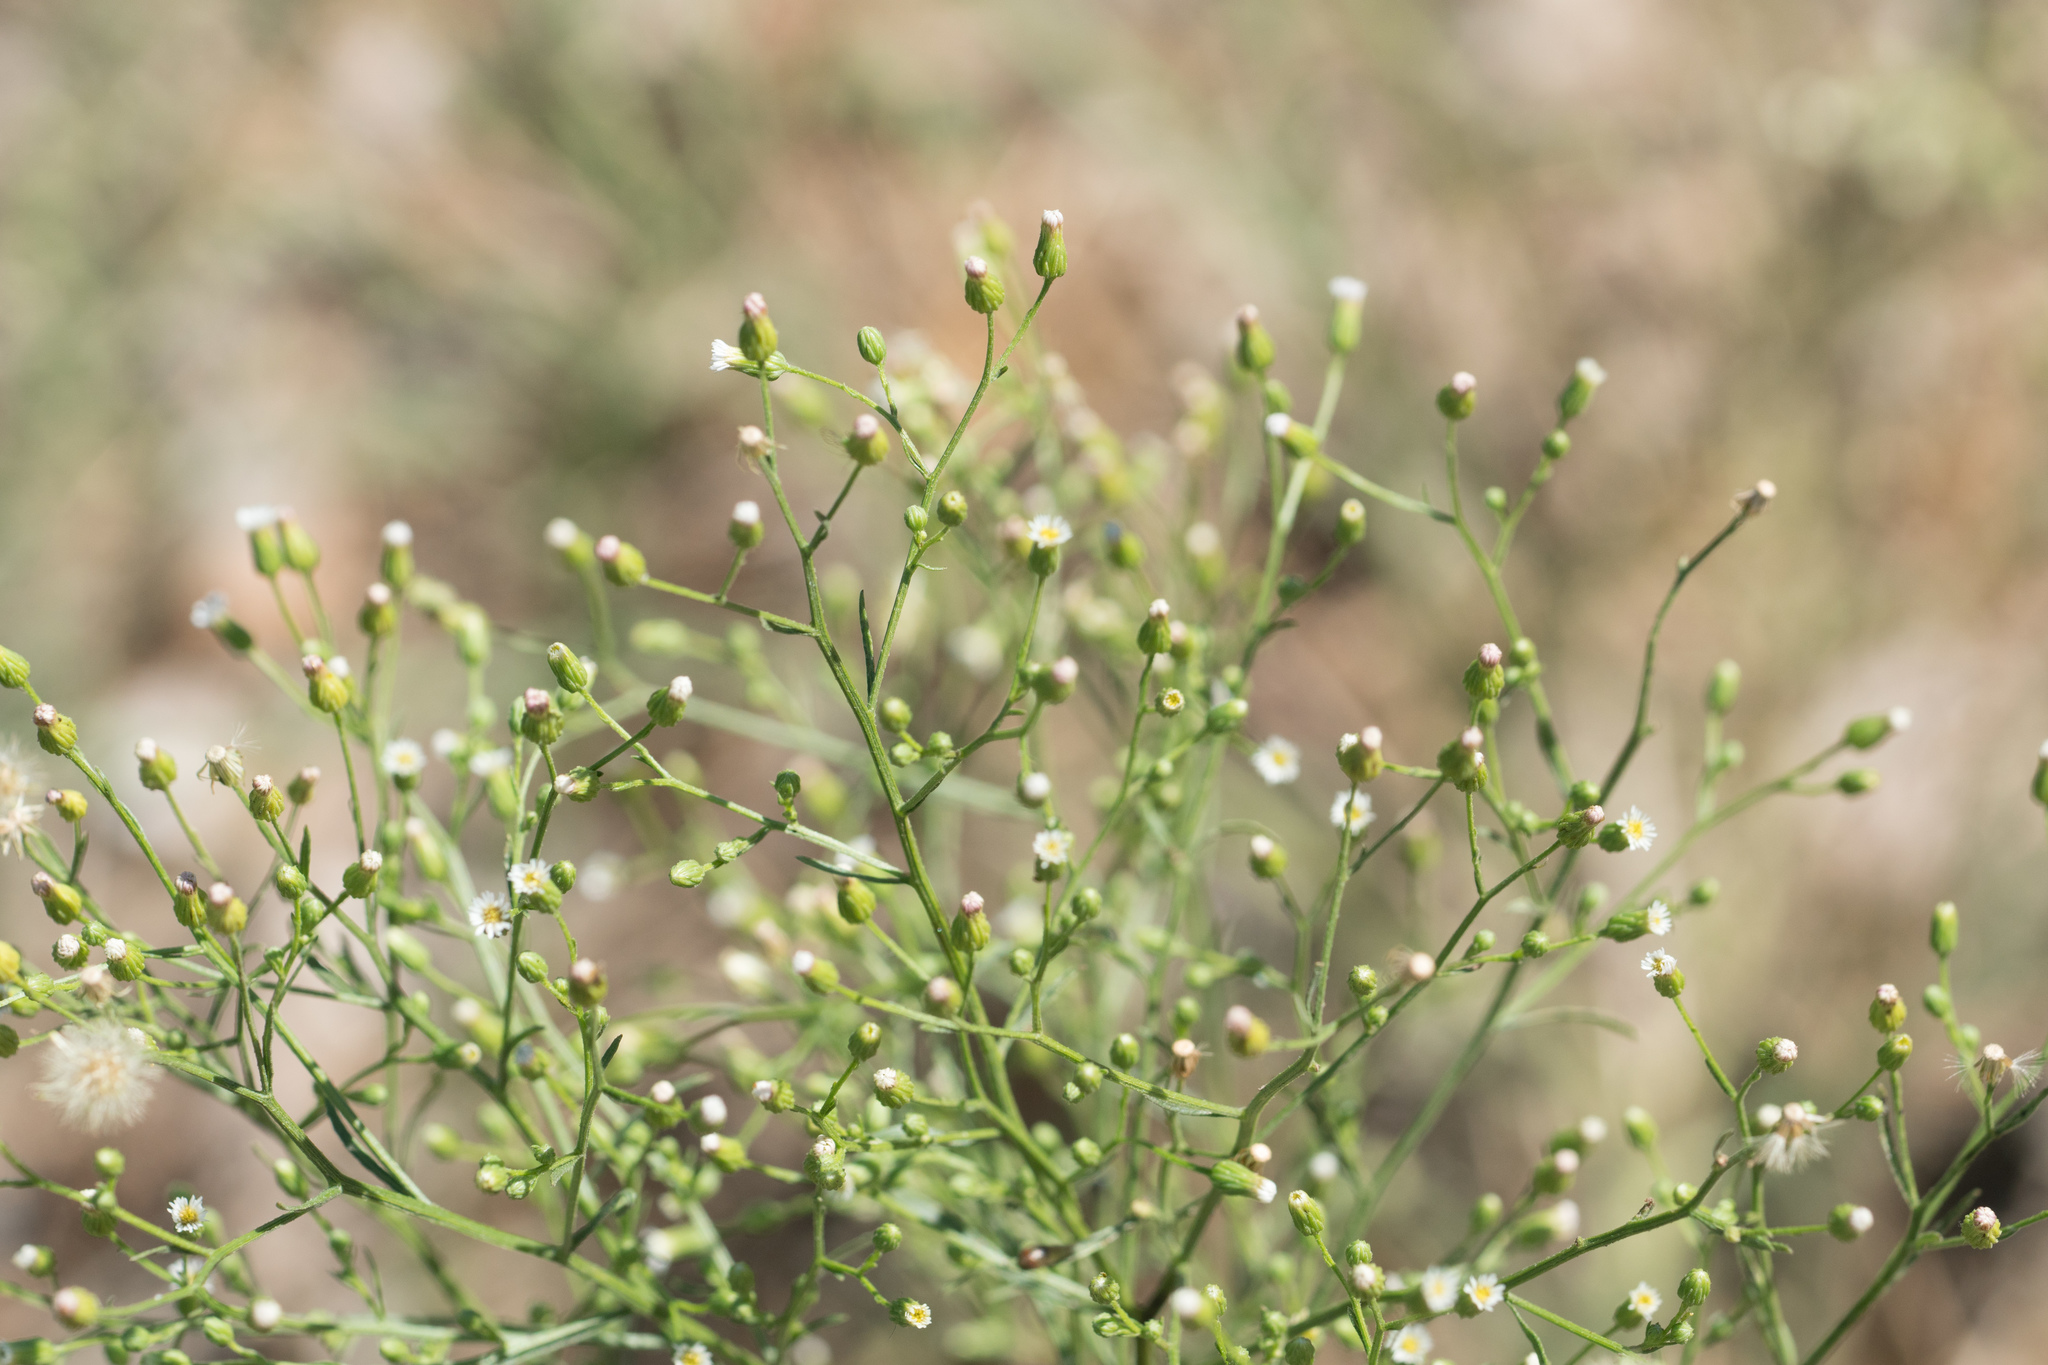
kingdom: Plantae
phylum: Tracheophyta
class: Magnoliopsida
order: Asterales
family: Asteraceae
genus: Erigeron
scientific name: Erigeron canadensis
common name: Canadian fleabane
